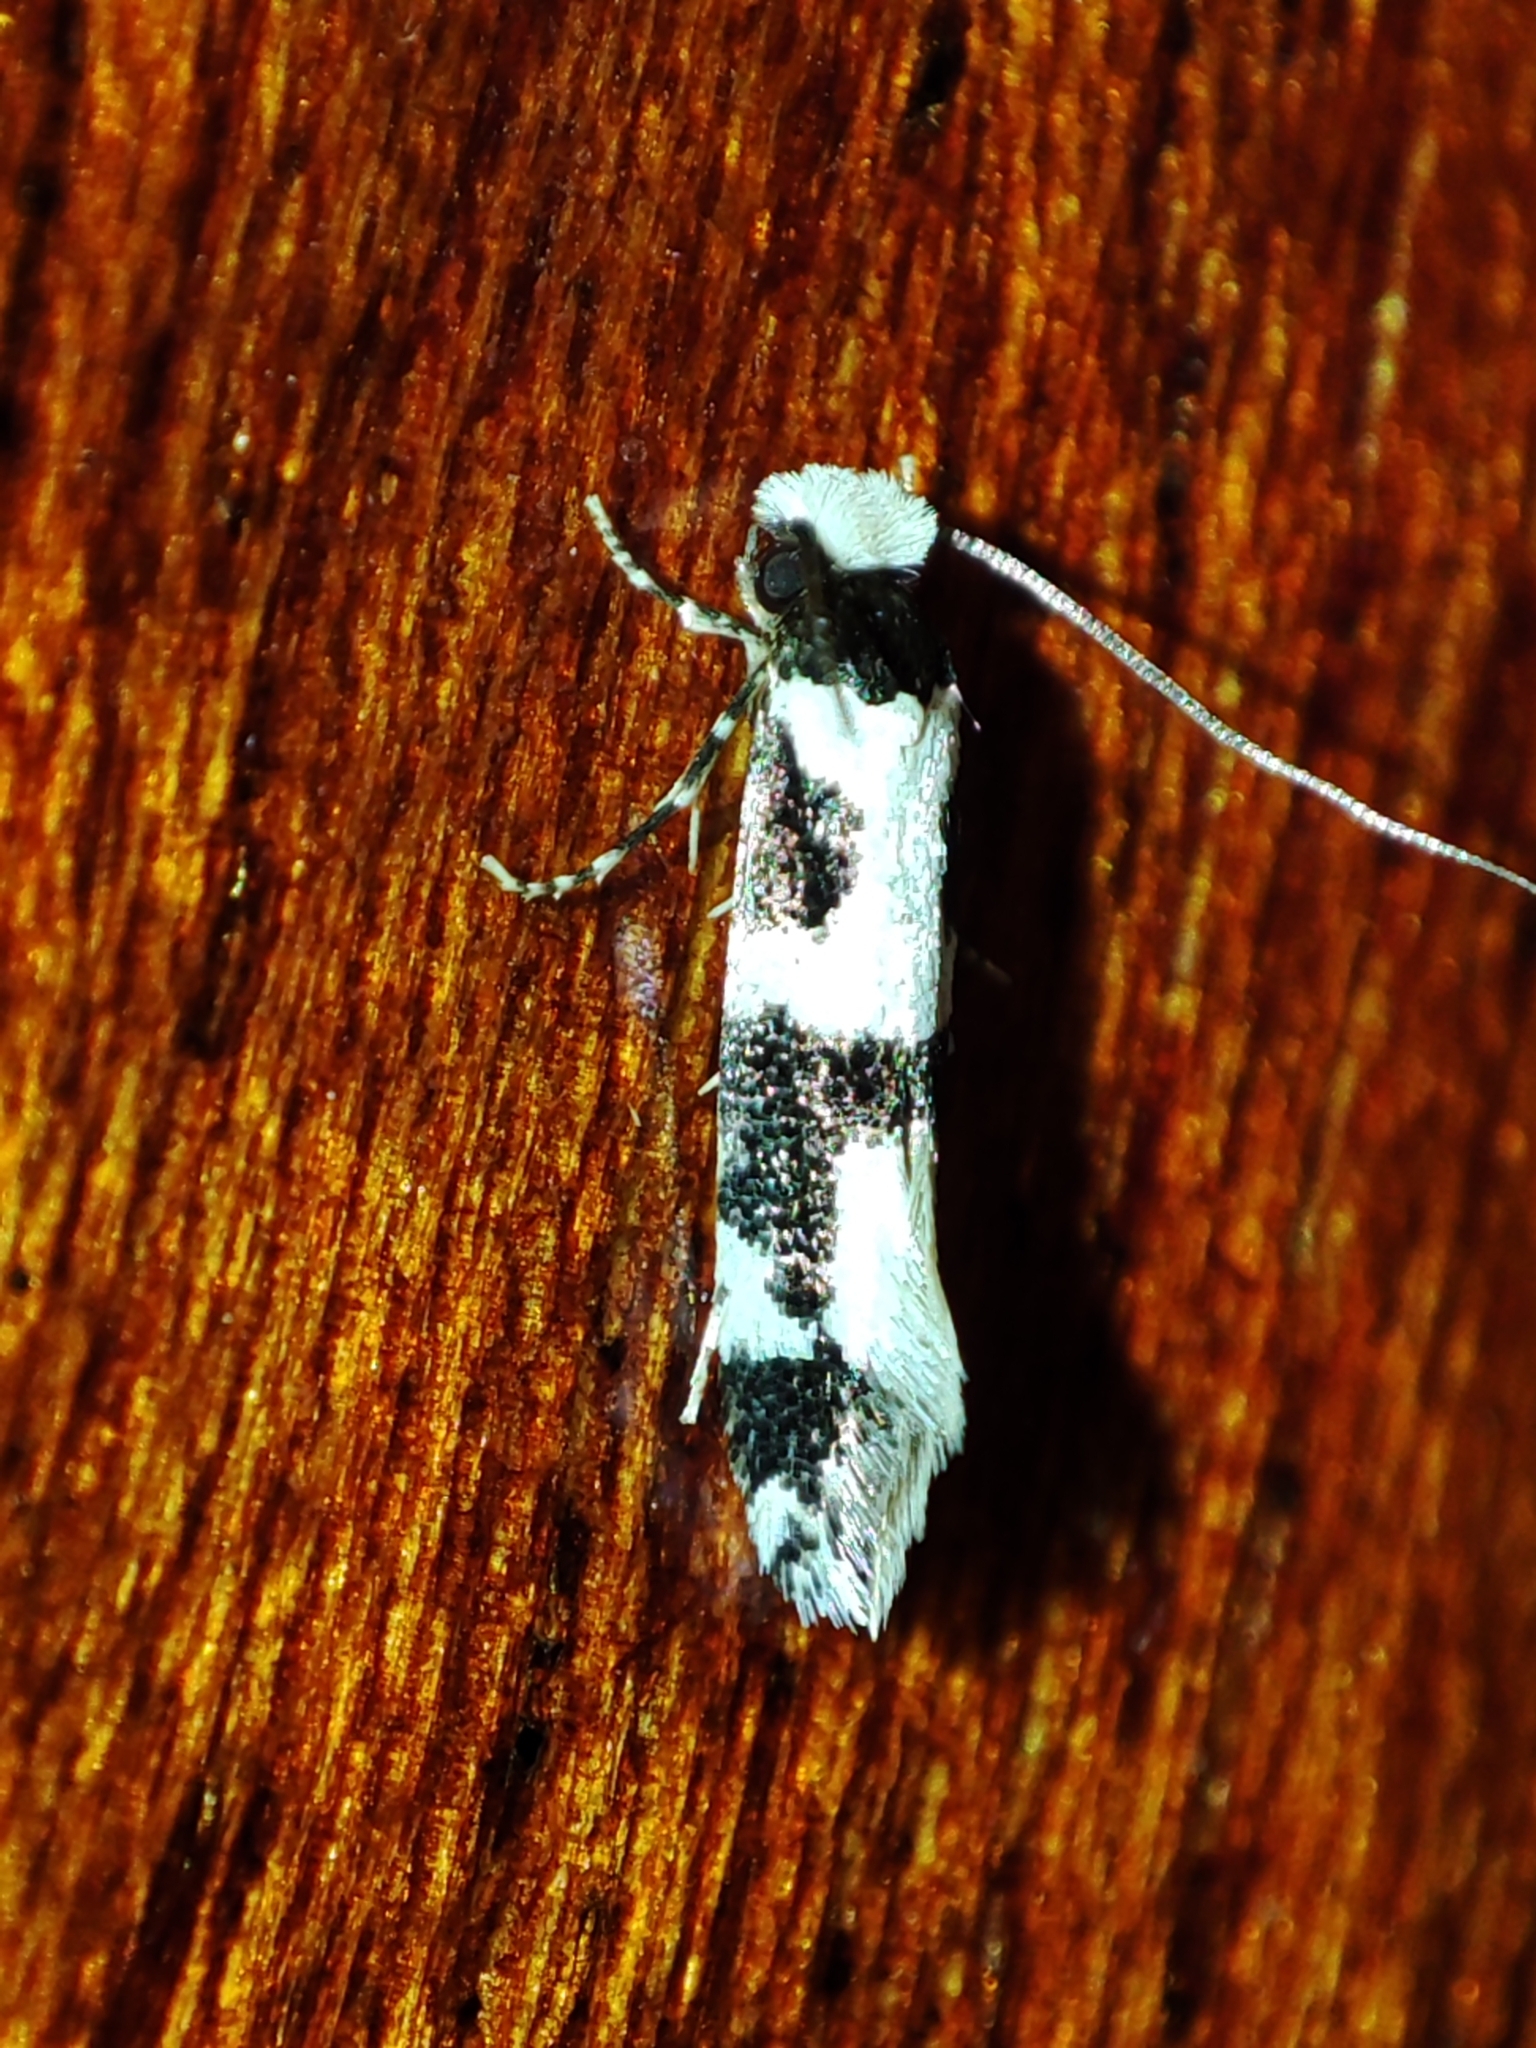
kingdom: Animalia
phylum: Arthropoda
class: Insecta
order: Lepidoptera
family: Tineidae
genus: Neurothaumasia
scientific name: Neurothaumasia ankerella
